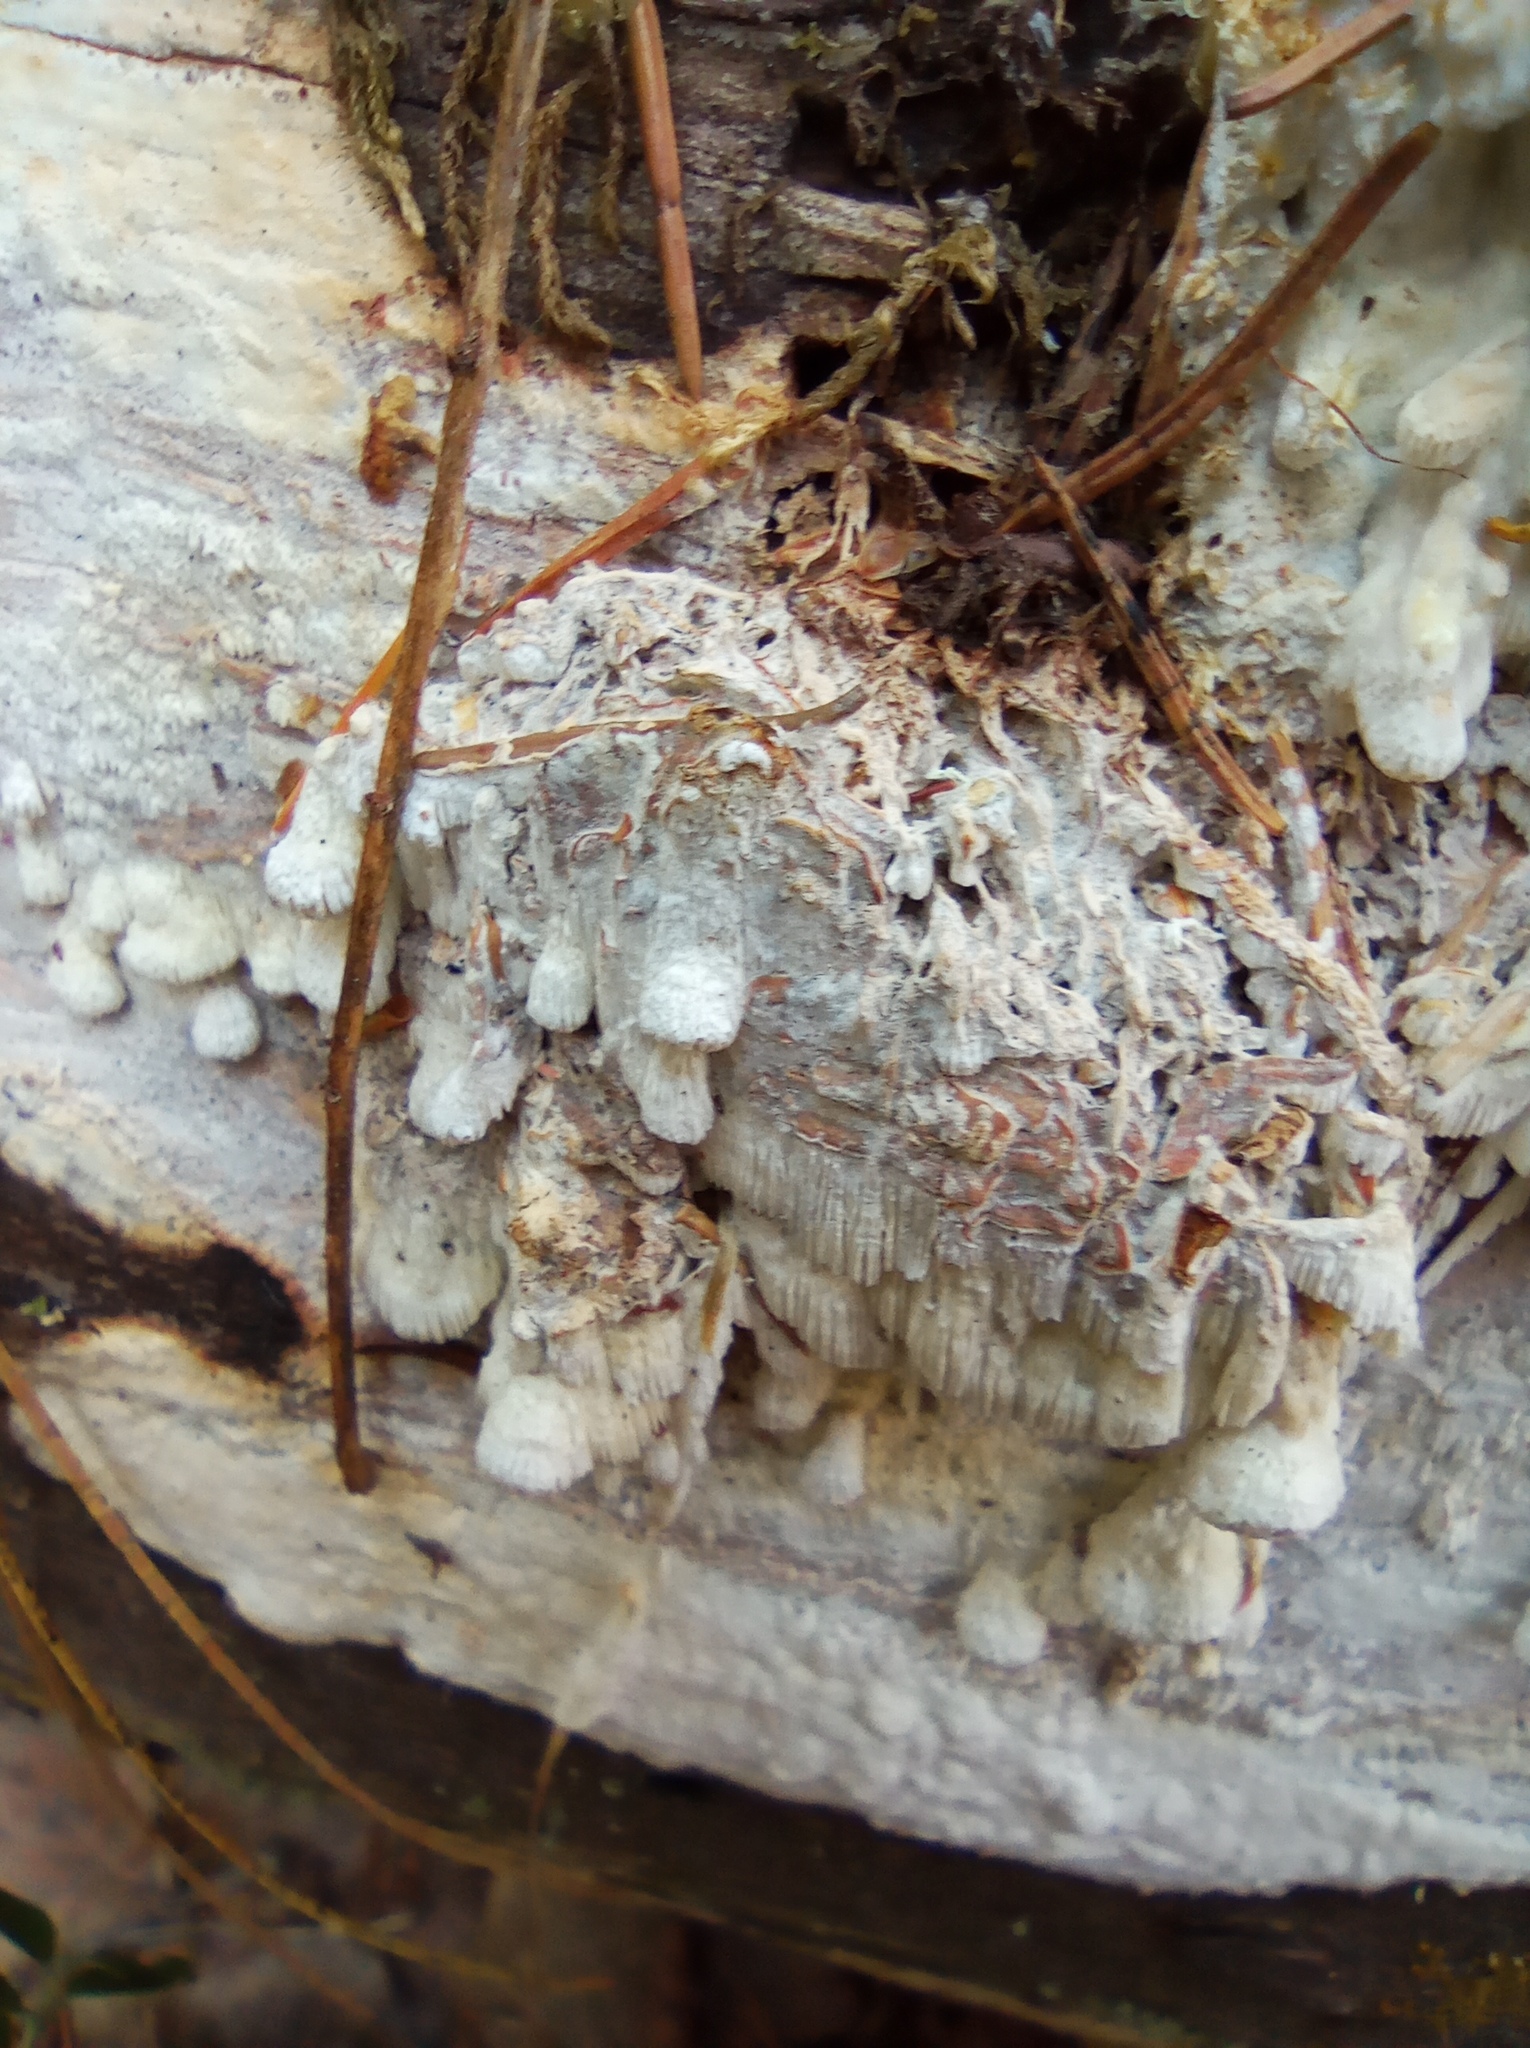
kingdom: Fungi
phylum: Basidiomycota
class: Agaricomycetes
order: Polyporales
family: Fomitopsidaceae
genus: Daedalea
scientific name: Daedalea xantha
